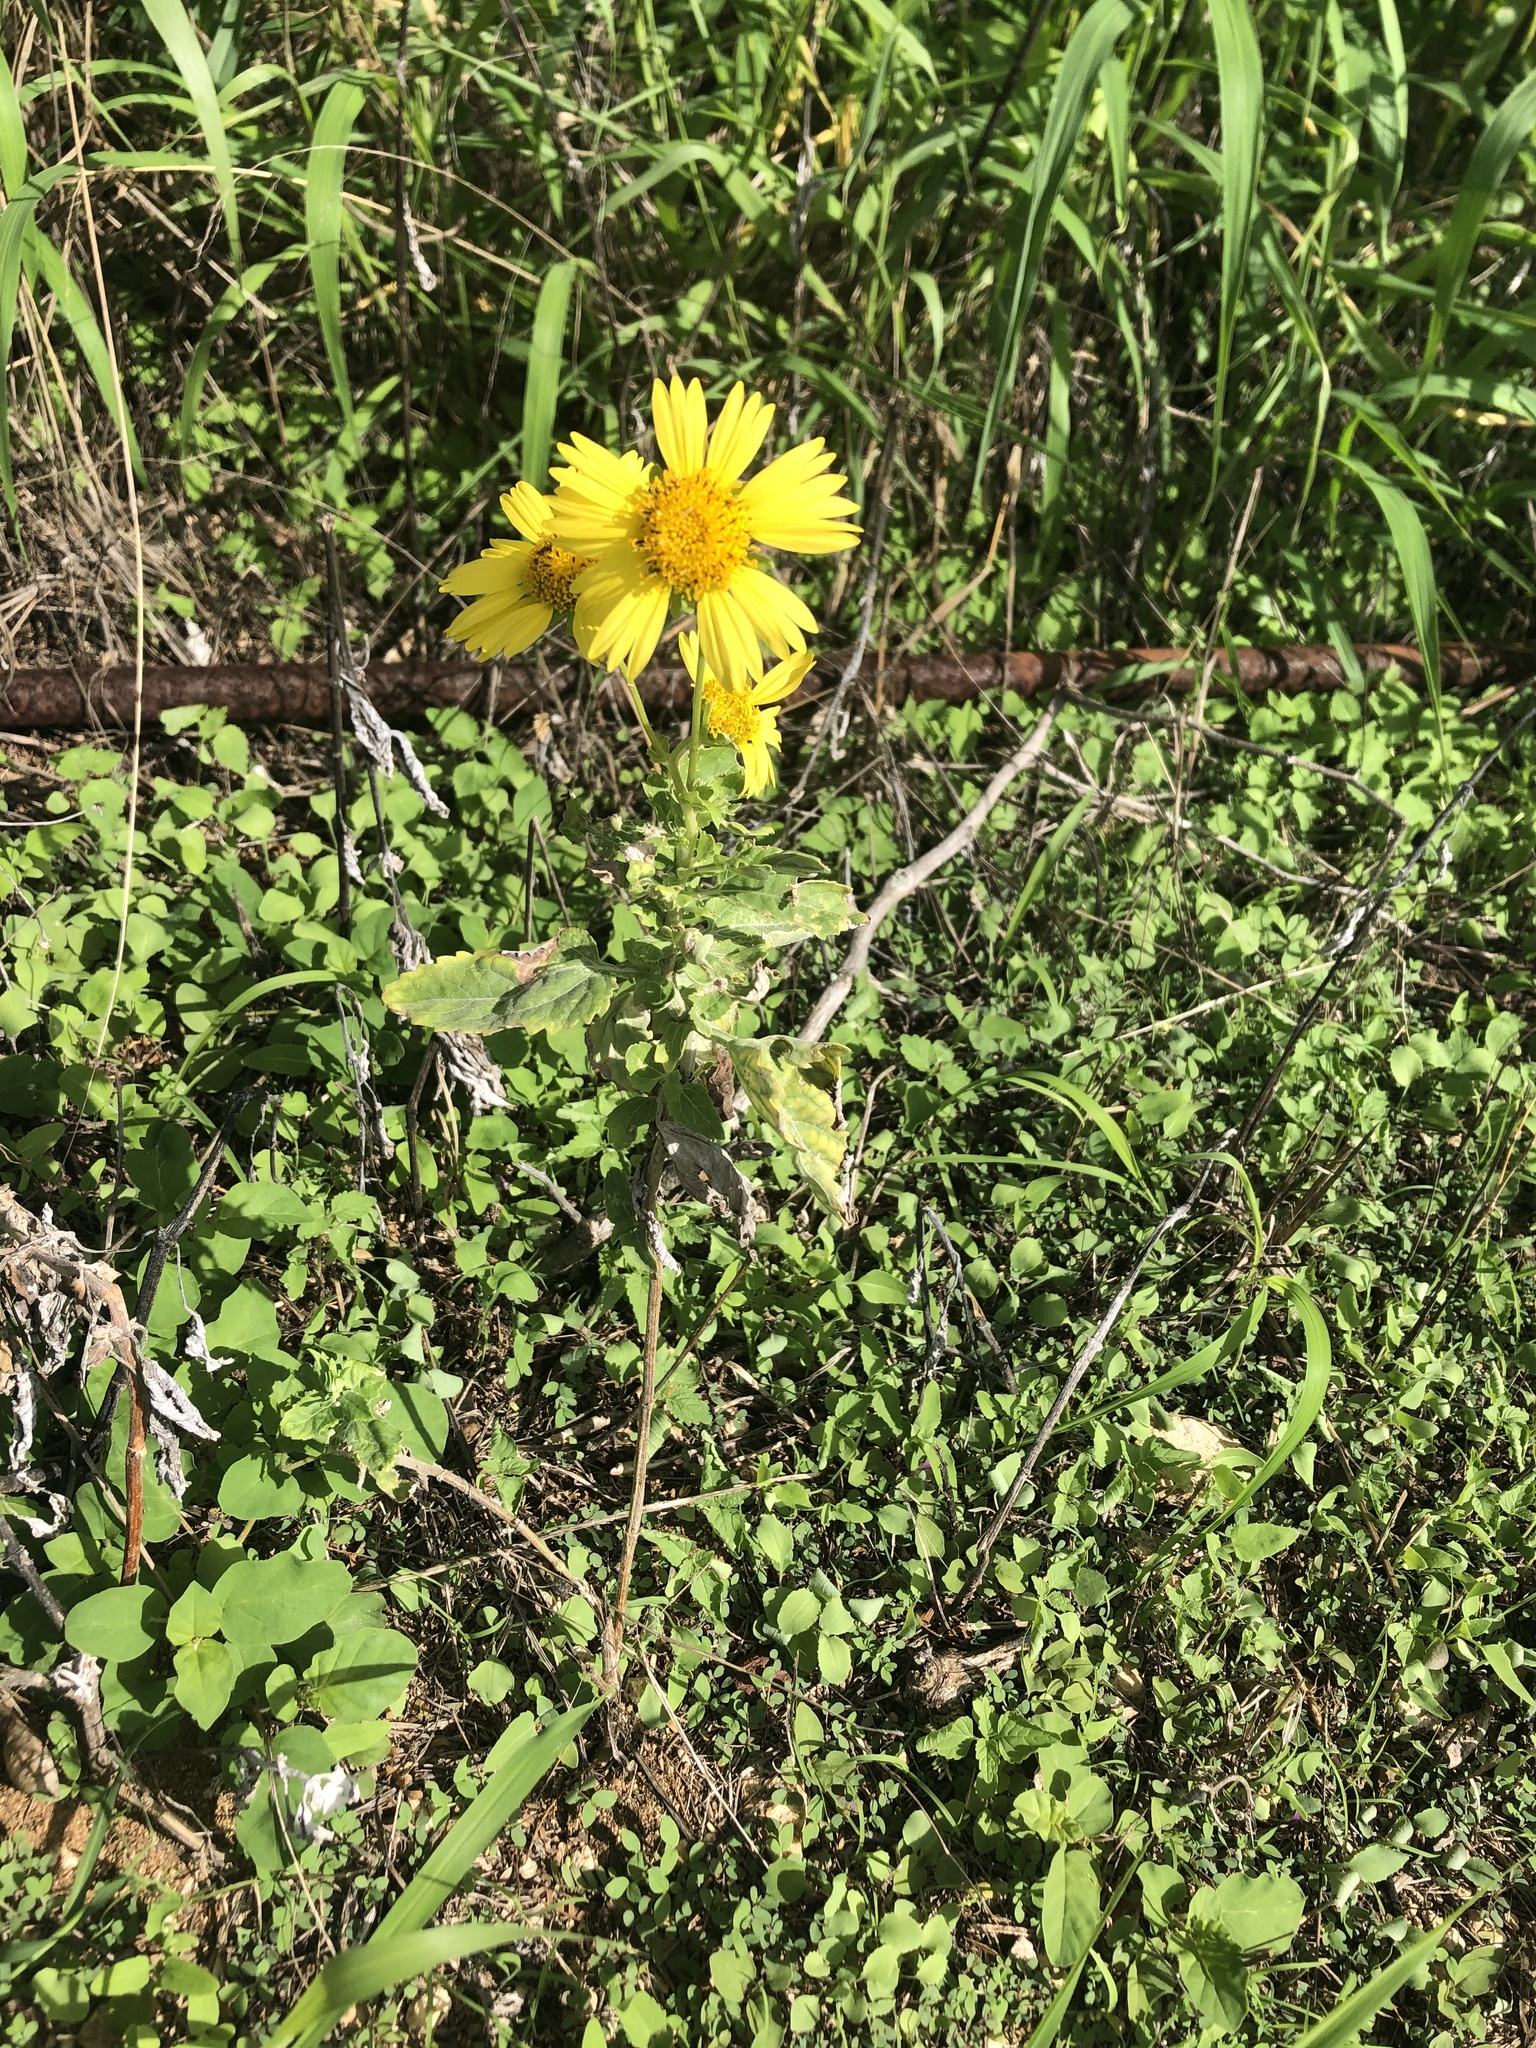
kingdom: Plantae
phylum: Tracheophyta
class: Magnoliopsida
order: Asterales
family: Asteraceae
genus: Verbesina
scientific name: Verbesina encelioides
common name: Golden crownbeard
